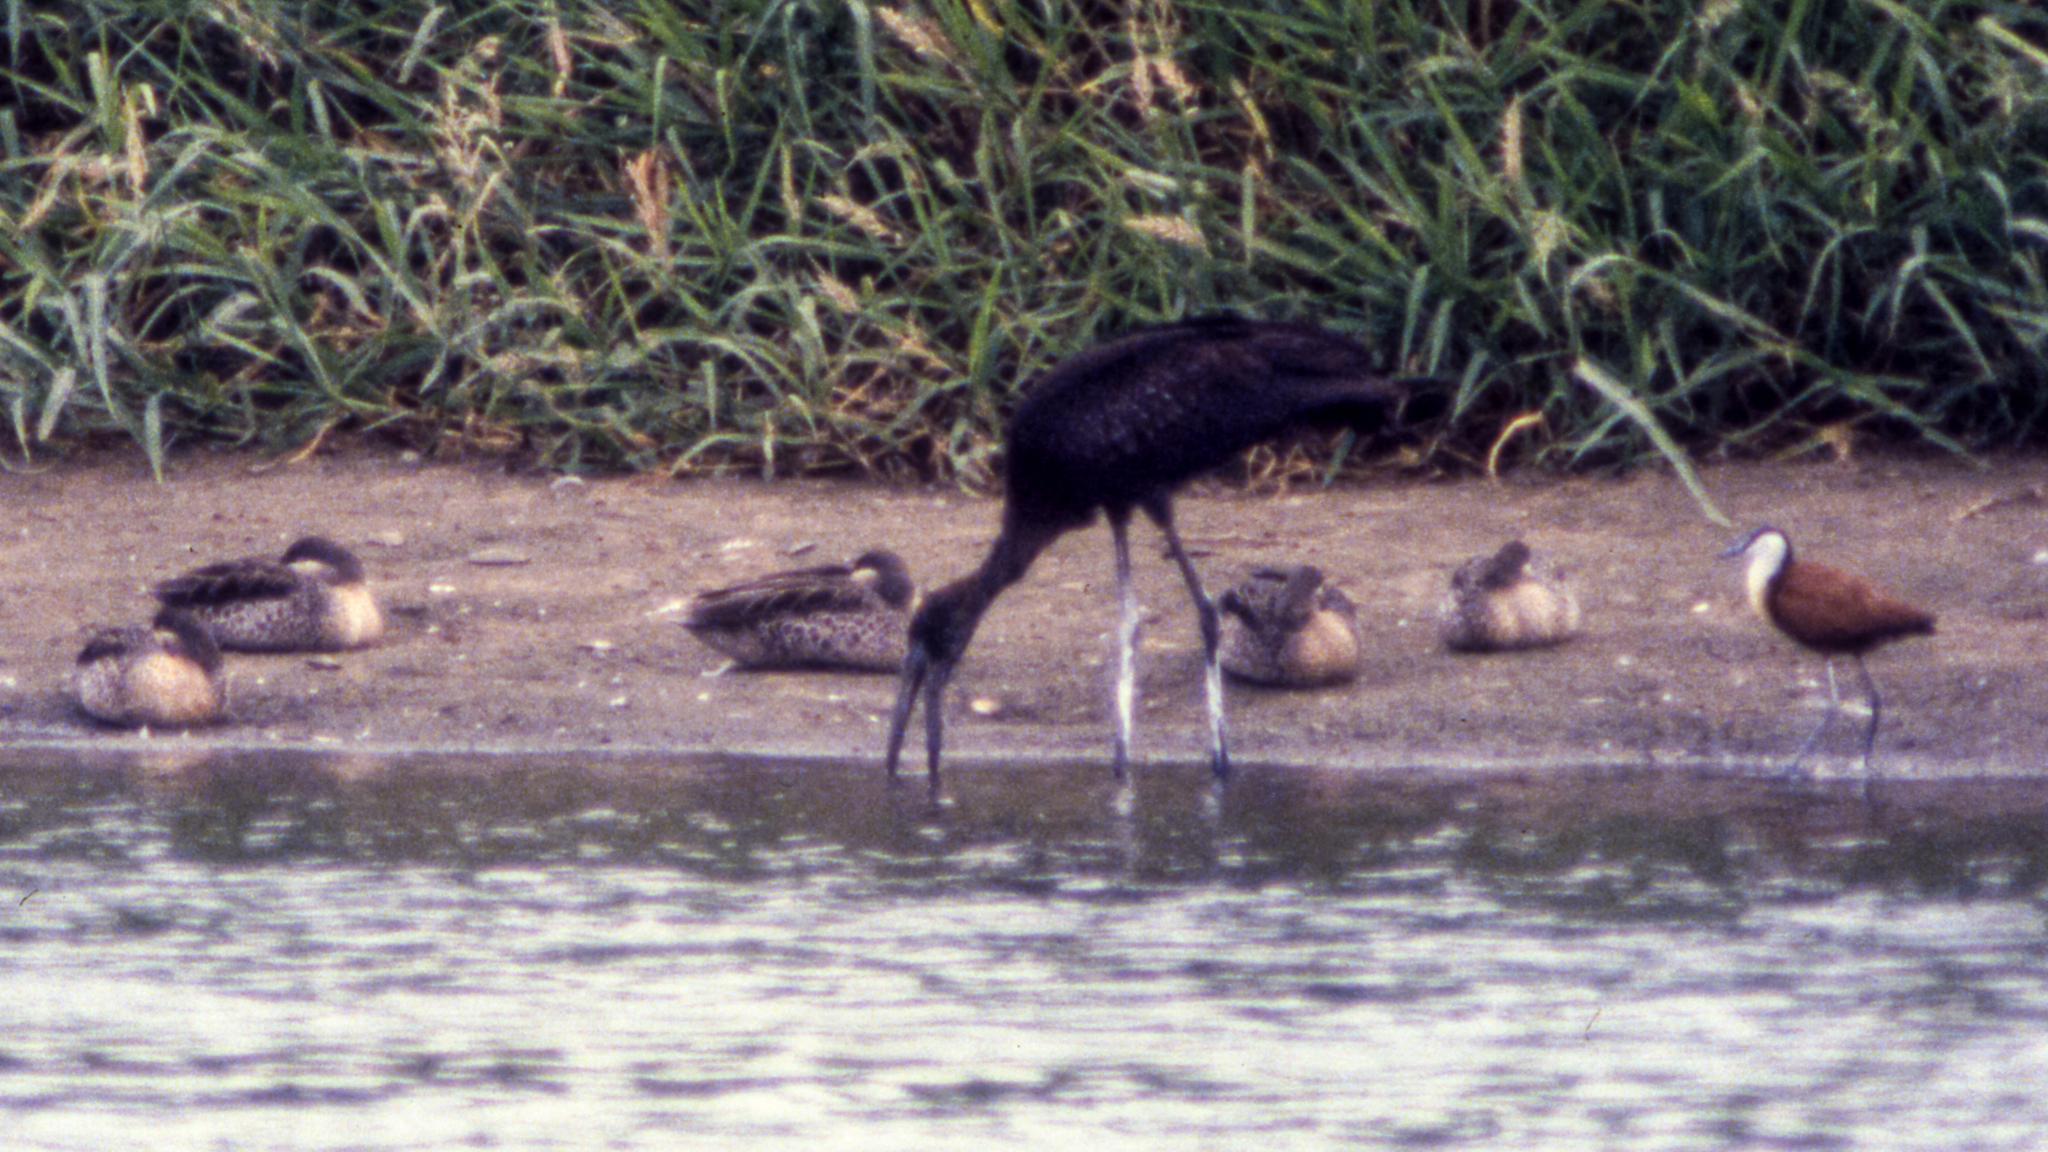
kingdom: Animalia
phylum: Chordata
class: Aves
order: Ciconiiformes
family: Ciconiidae
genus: Anastomus
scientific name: Anastomus lamelligerus
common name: African openbill
